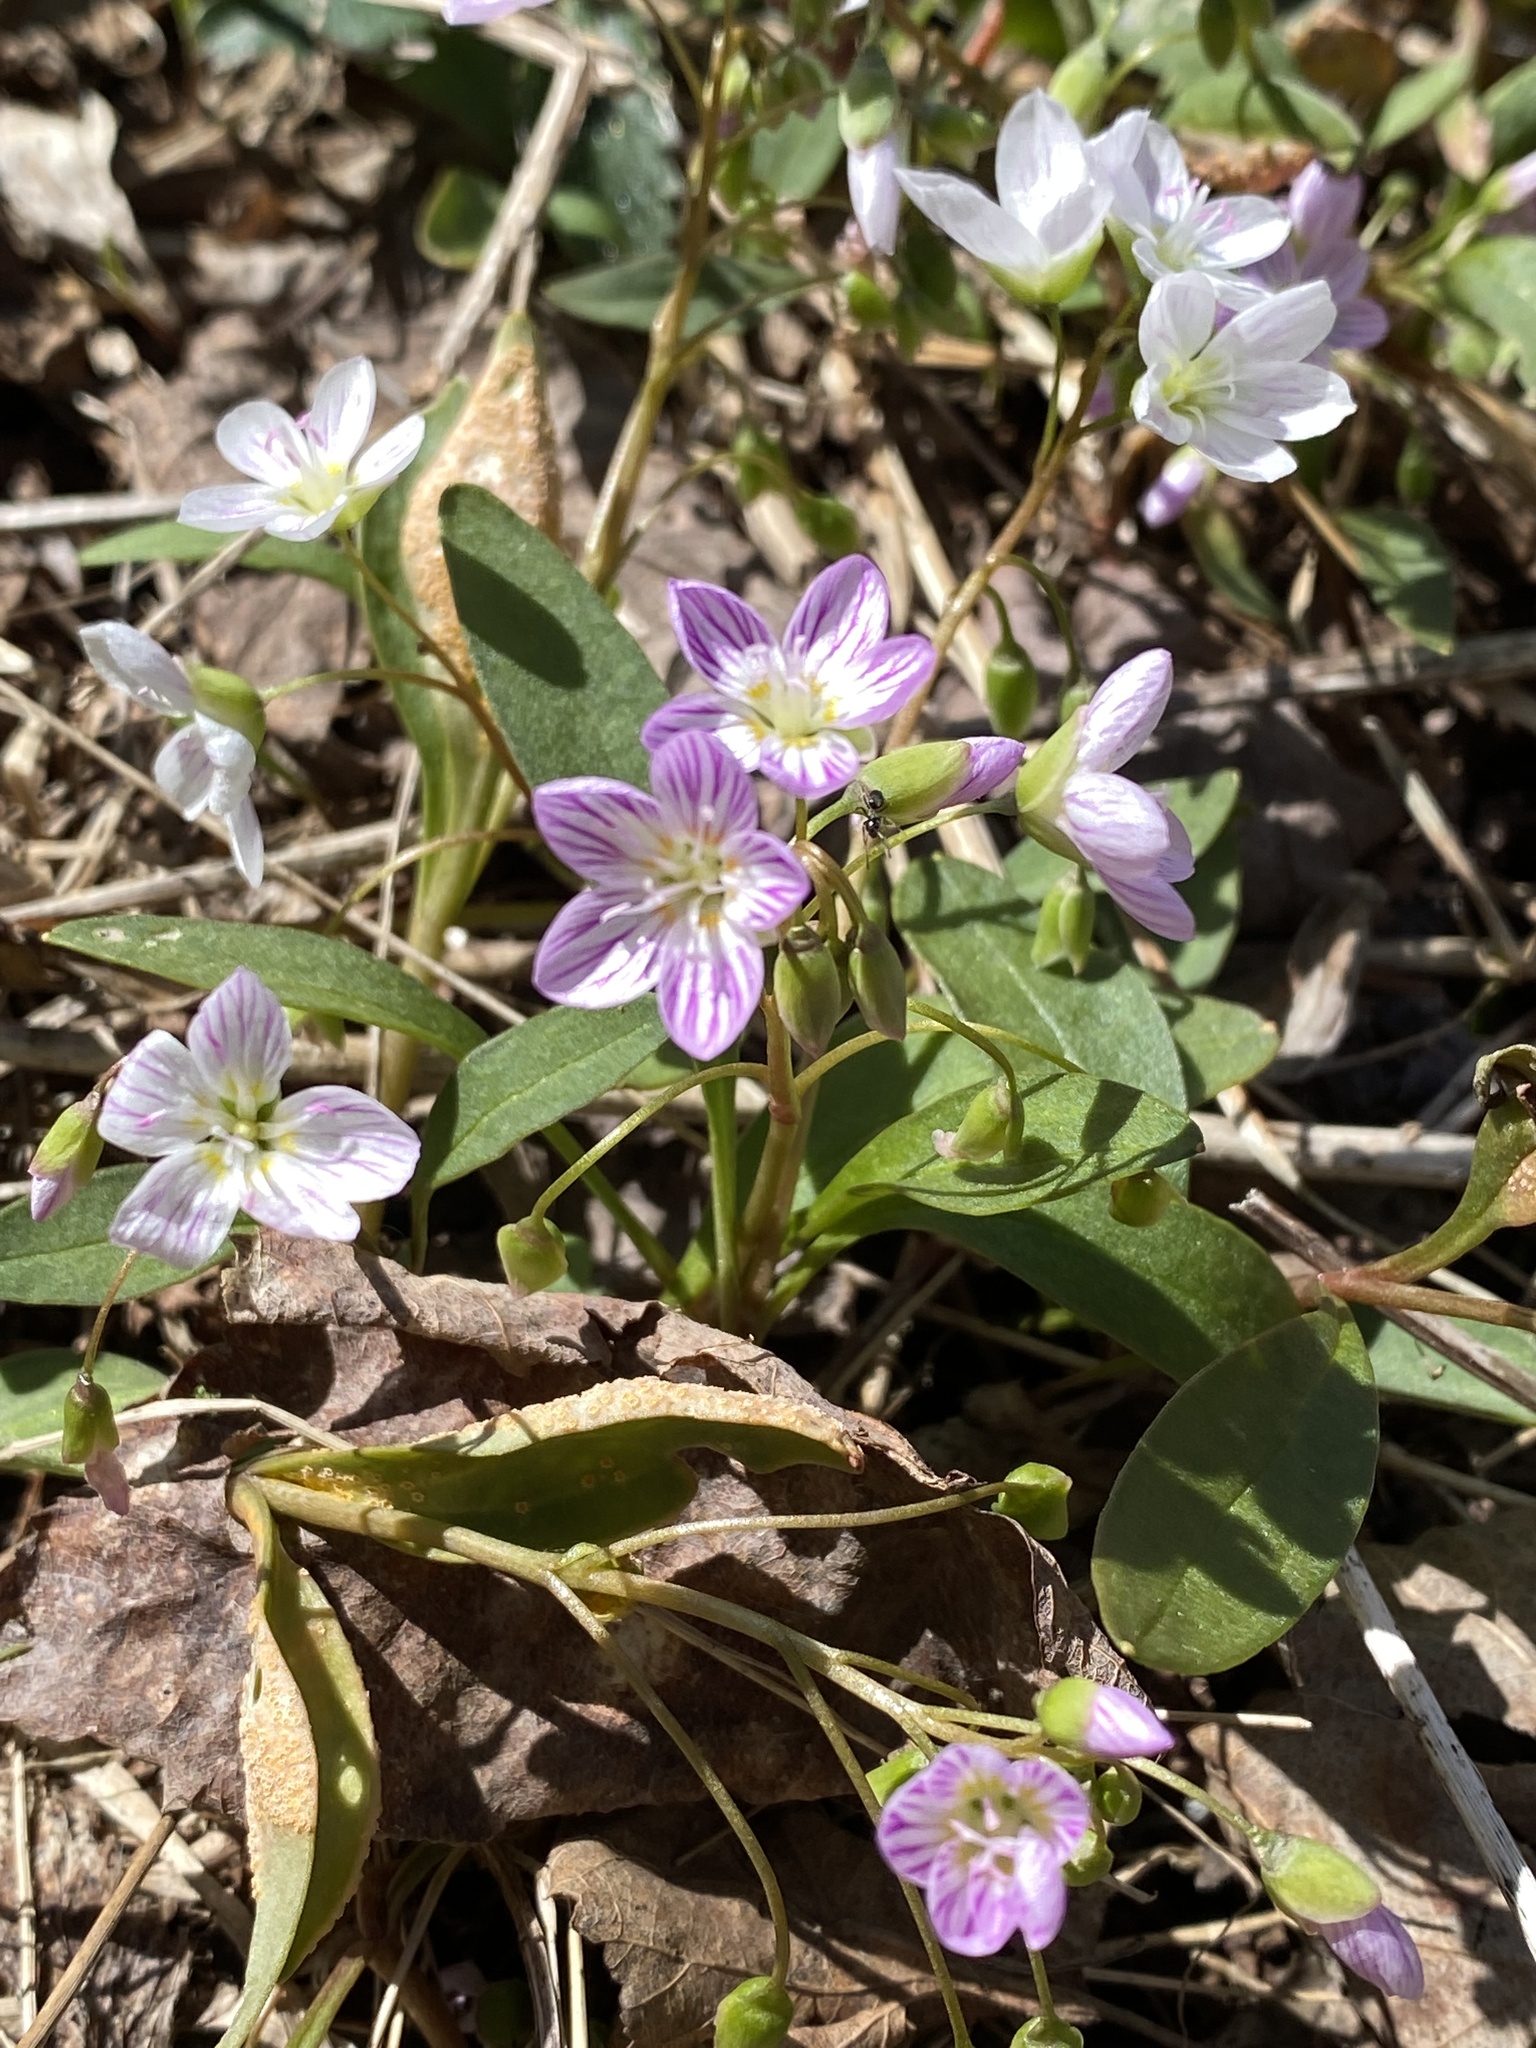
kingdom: Plantae
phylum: Tracheophyta
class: Magnoliopsida
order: Caryophyllales
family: Montiaceae
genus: Claytonia
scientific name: Claytonia caroliniana
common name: Carolina spring beauty
